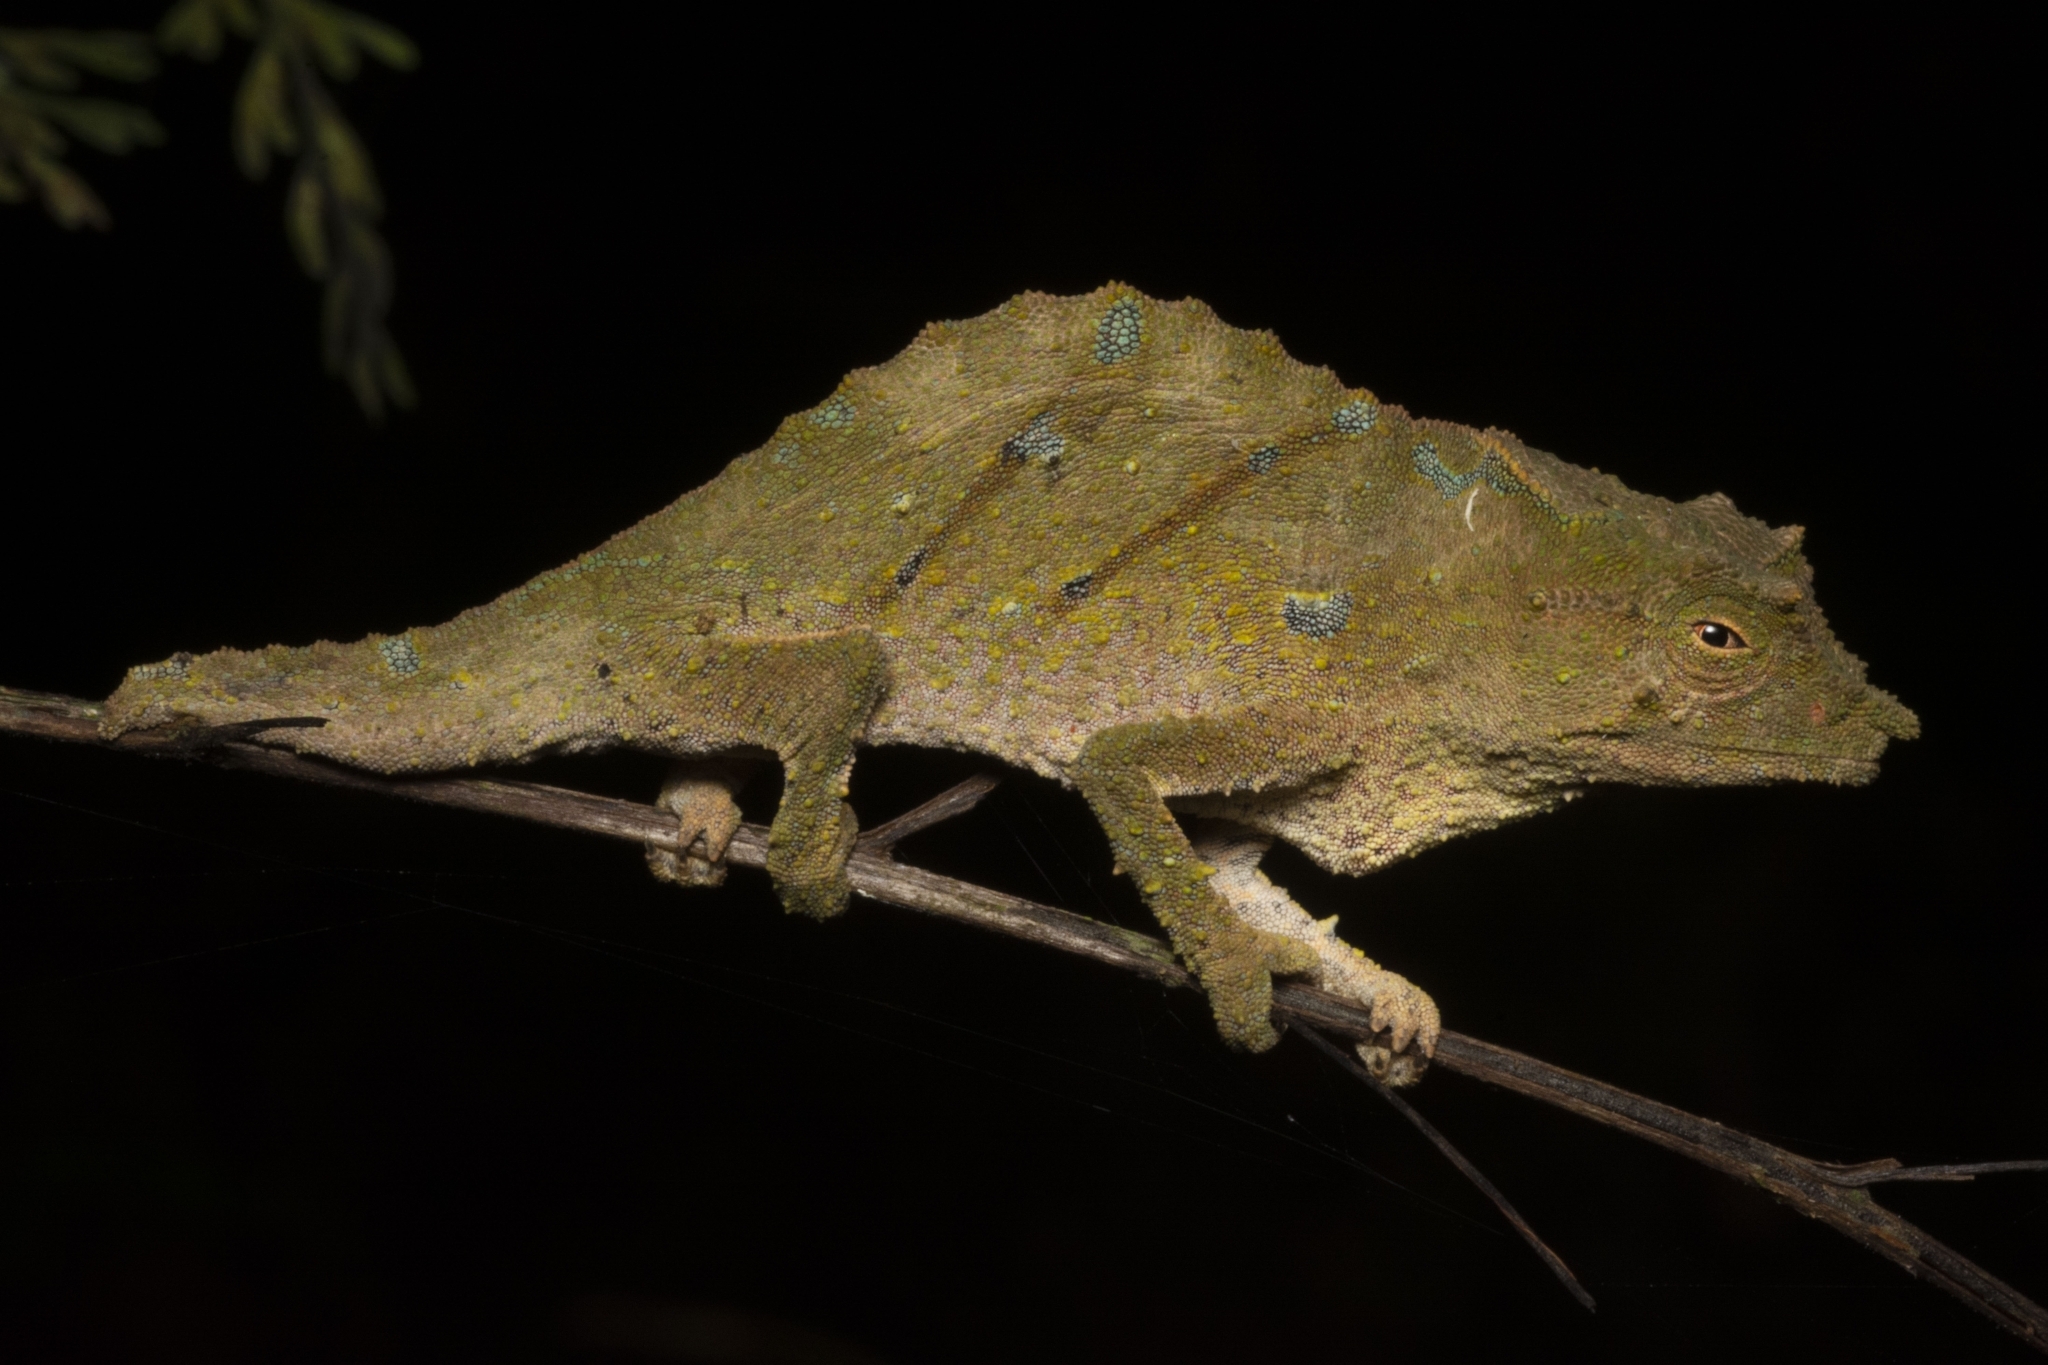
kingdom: Animalia
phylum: Chordata
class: Squamata
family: Chamaeleonidae
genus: Rhampholeon
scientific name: Rhampholeon
